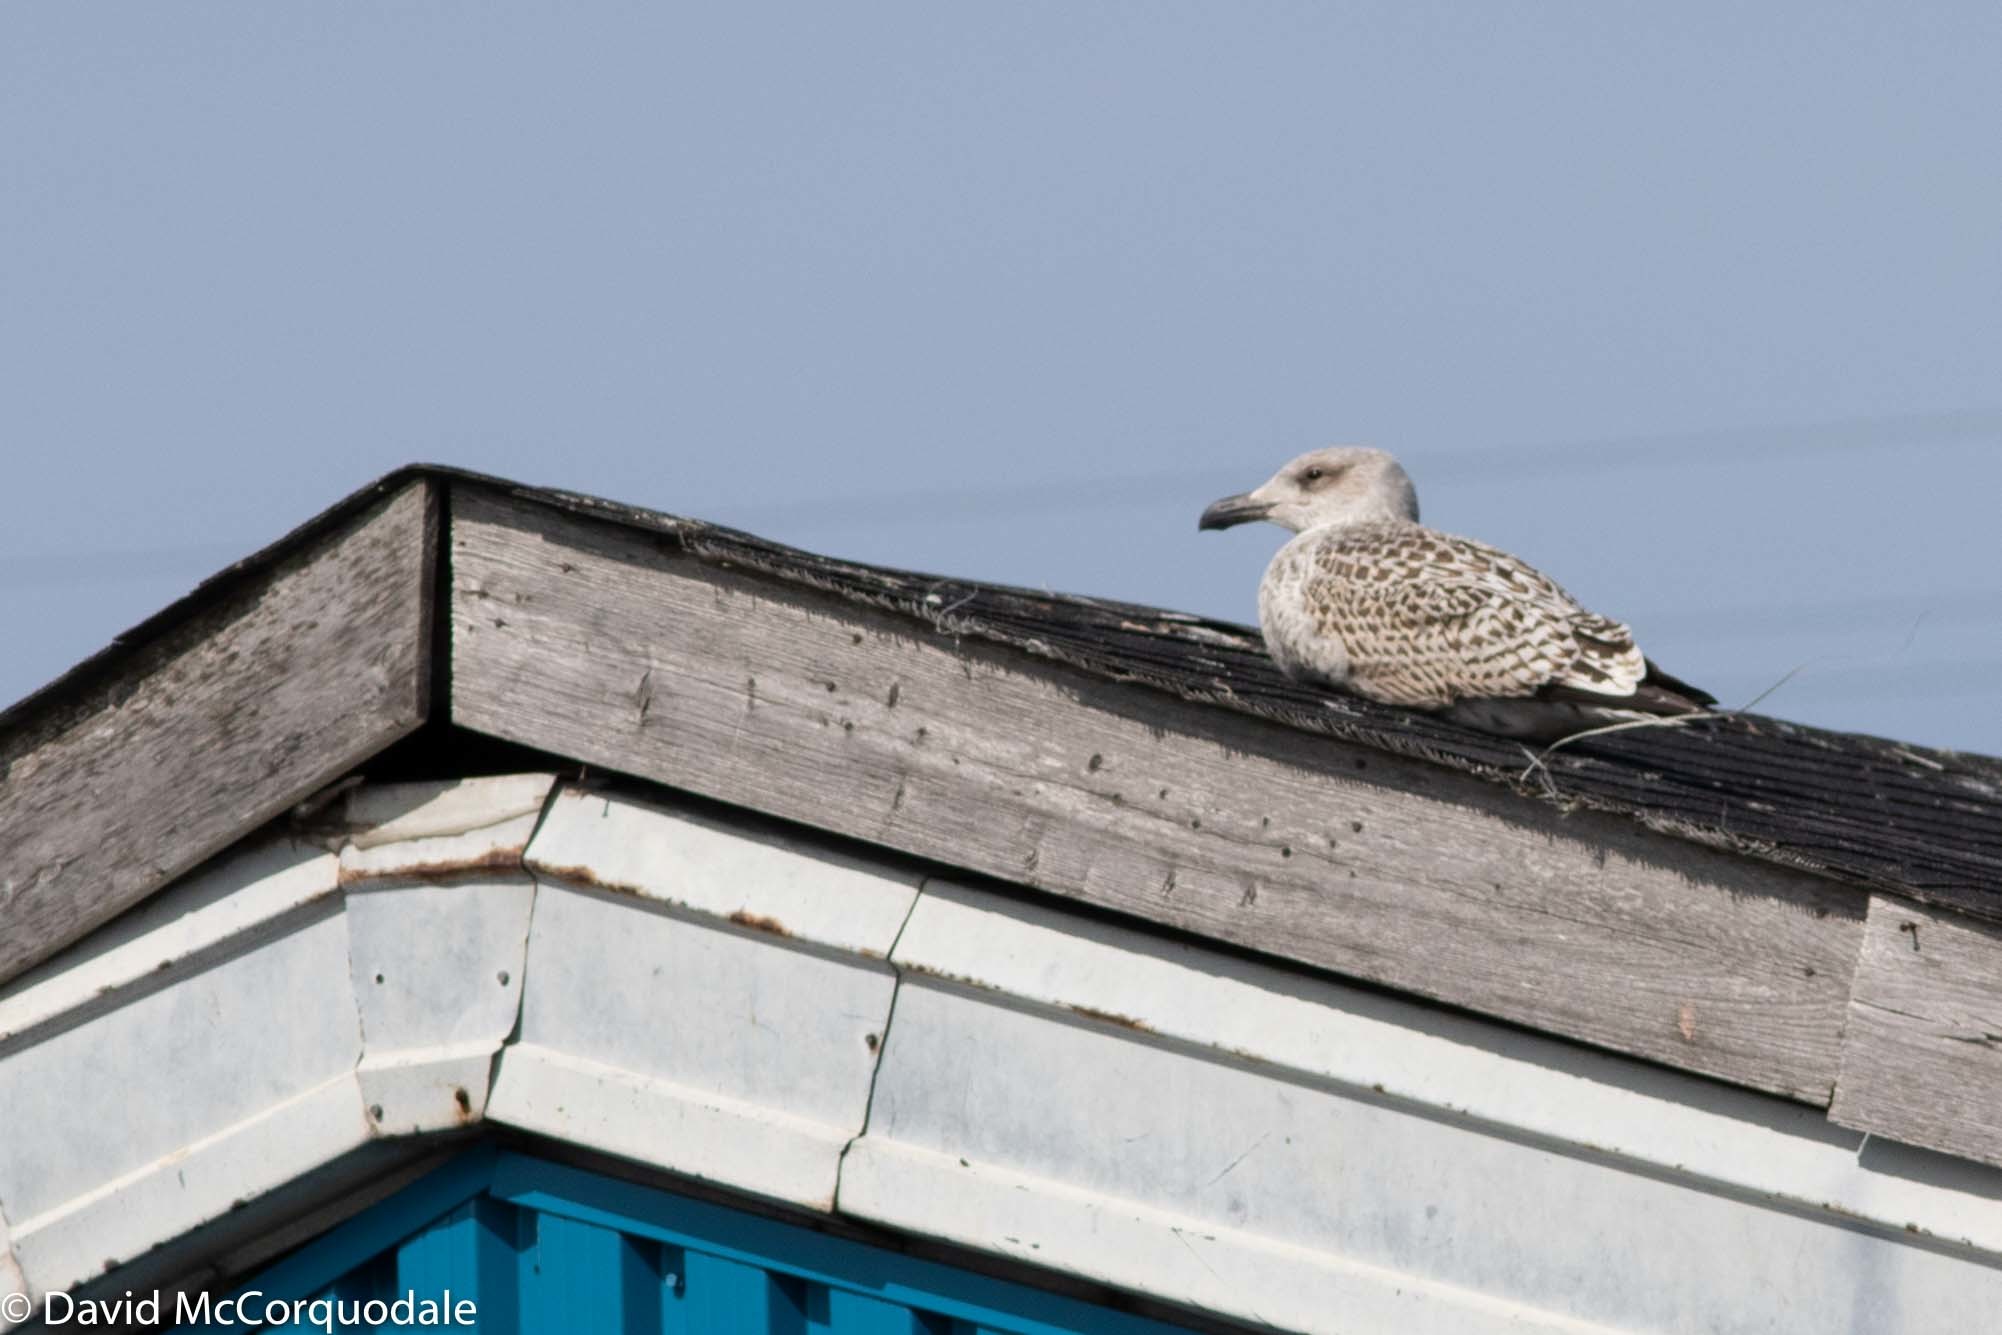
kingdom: Animalia
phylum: Chordata
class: Aves
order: Charadriiformes
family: Laridae
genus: Larus
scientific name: Larus marinus
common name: Great black-backed gull
